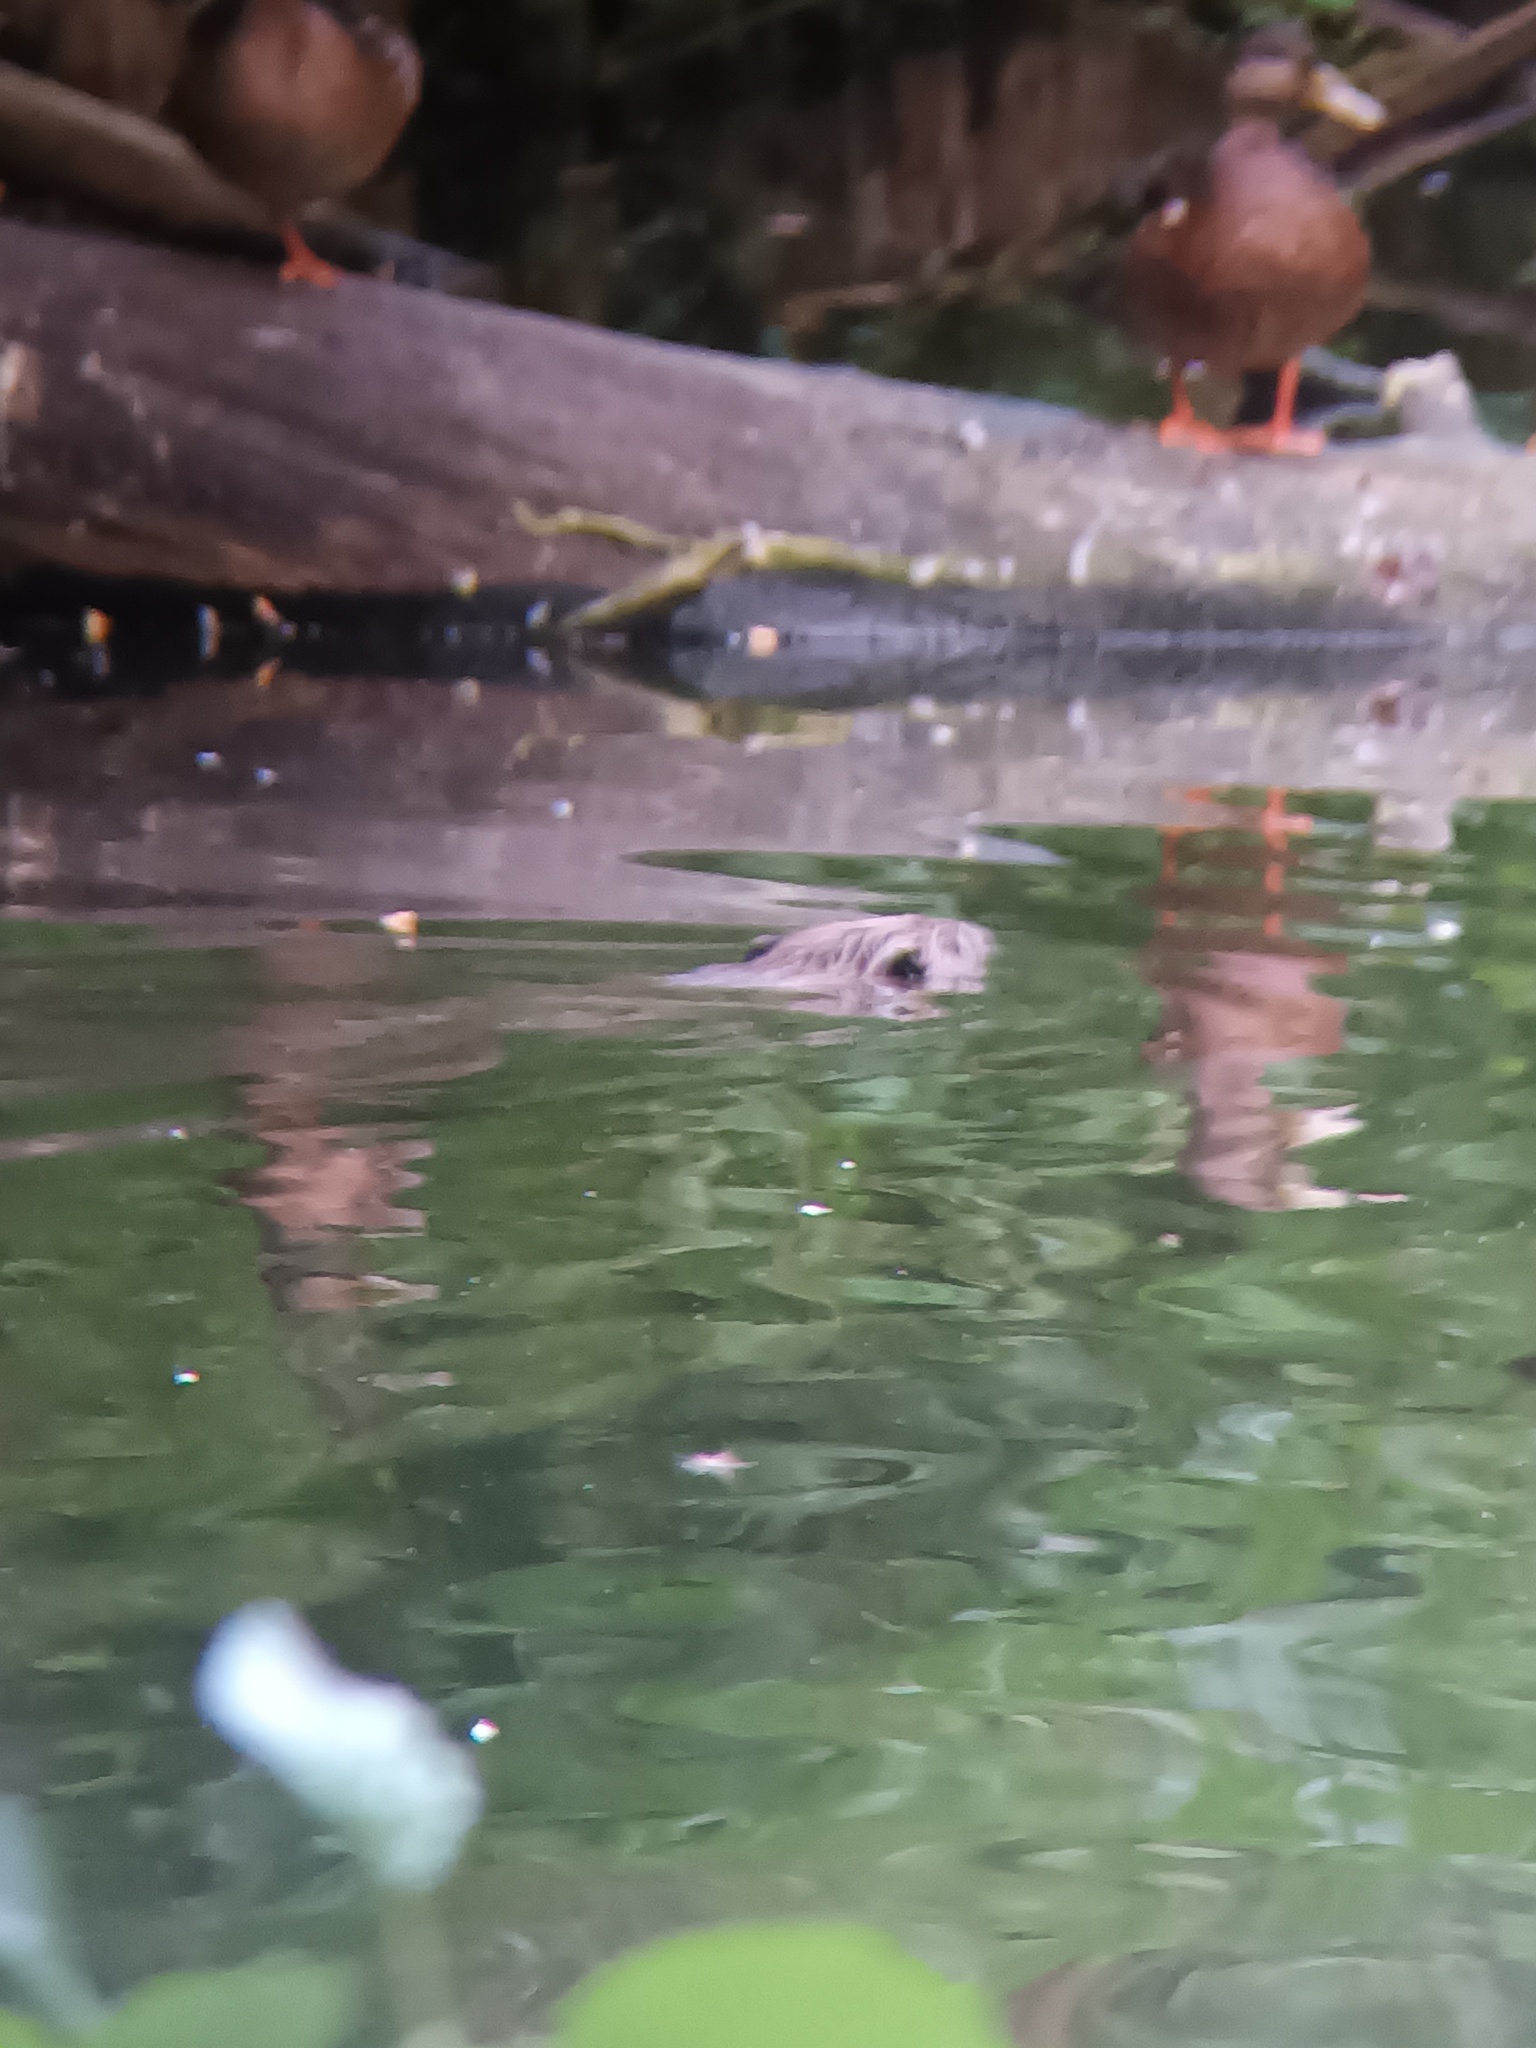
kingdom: Animalia
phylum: Chordata
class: Mammalia
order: Rodentia
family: Castoridae
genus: Castor
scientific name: Castor fiber
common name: Eurasian beaver
